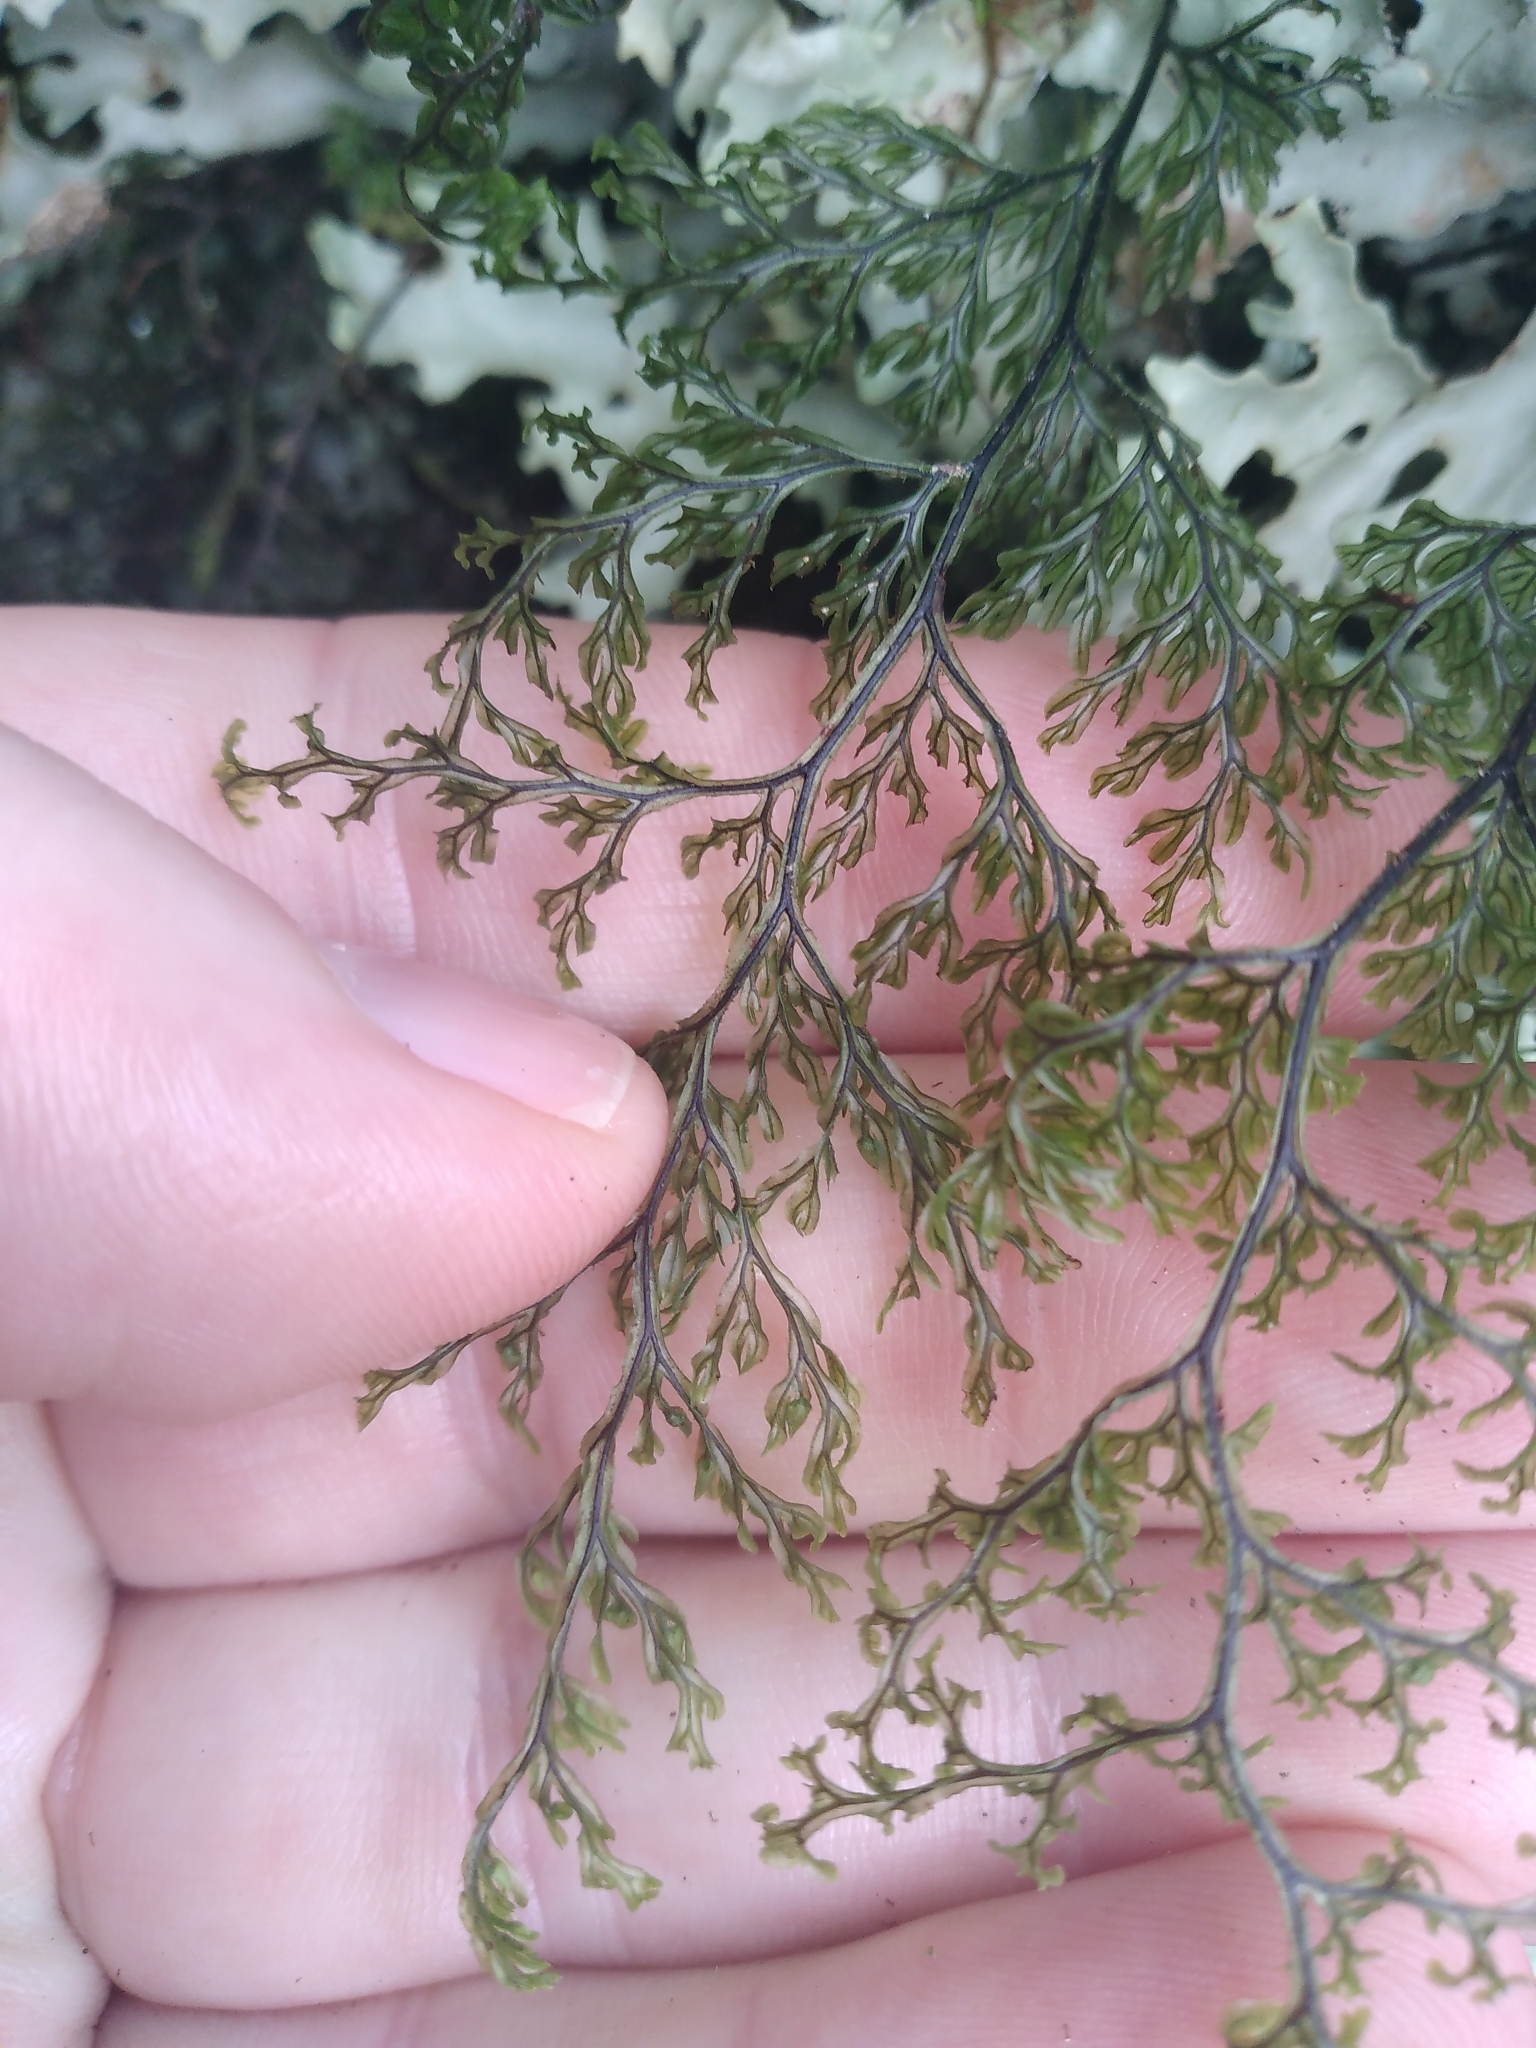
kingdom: Plantae
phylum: Tracheophyta
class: Polypodiopsida
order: Hymenophyllales
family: Hymenophyllaceae
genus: Hymenophyllum
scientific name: Hymenophyllum villosum
